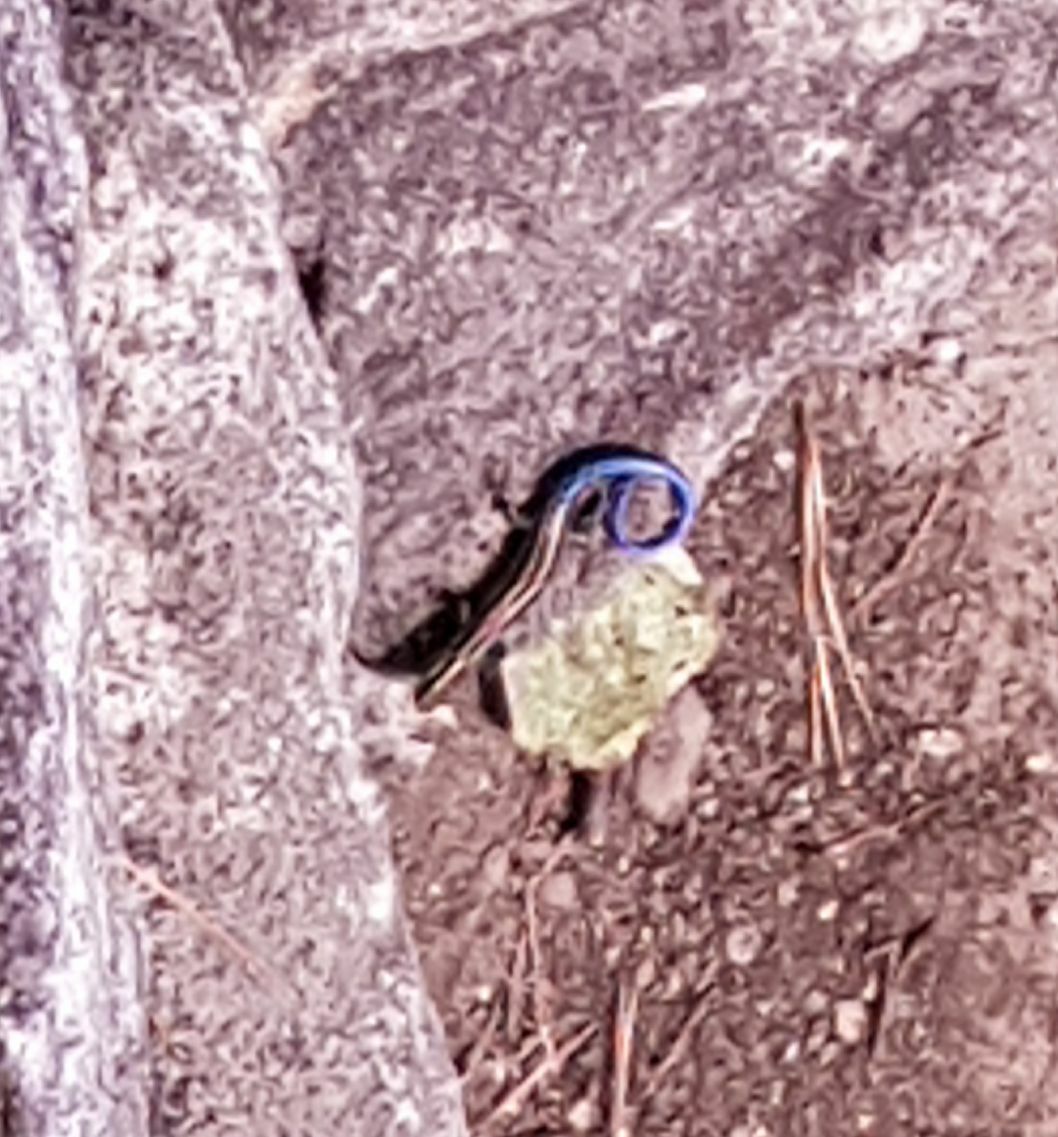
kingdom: Animalia
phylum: Chordata
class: Squamata
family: Scincidae
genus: Plestiodon
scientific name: Plestiodon fasciatus
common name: Five-lined skink
